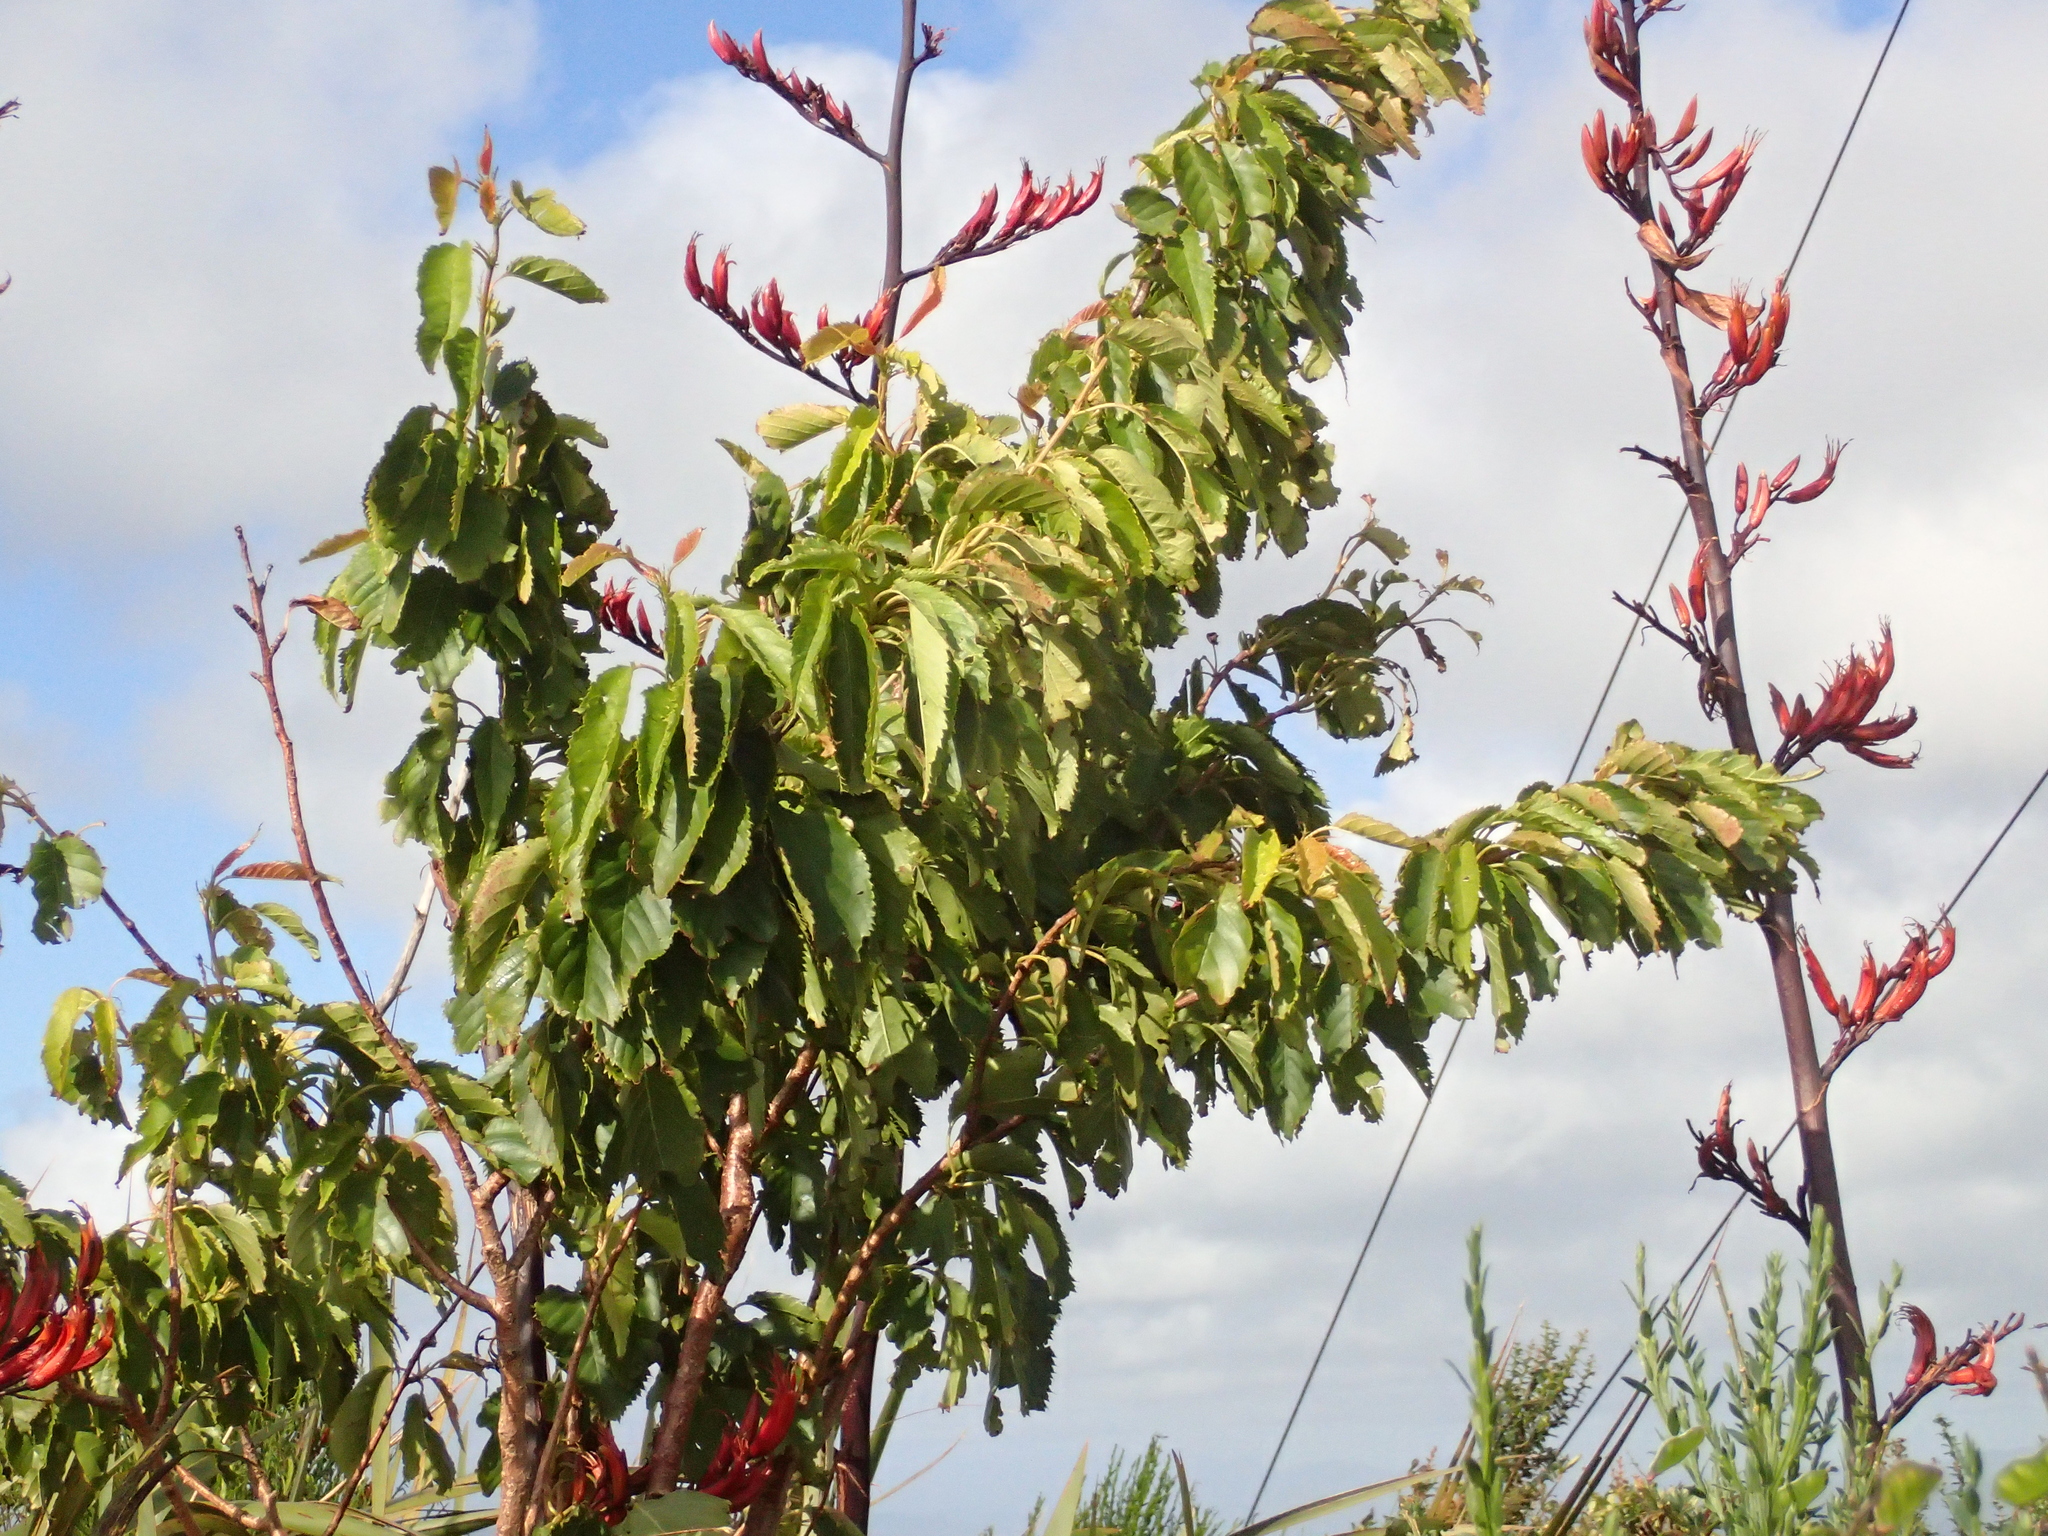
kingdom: Plantae
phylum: Tracheophyta
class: Magnoliopsida
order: Rosales
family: Rosaceae
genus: Prunus
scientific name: Prunus serrulata
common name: Japanese cherry
